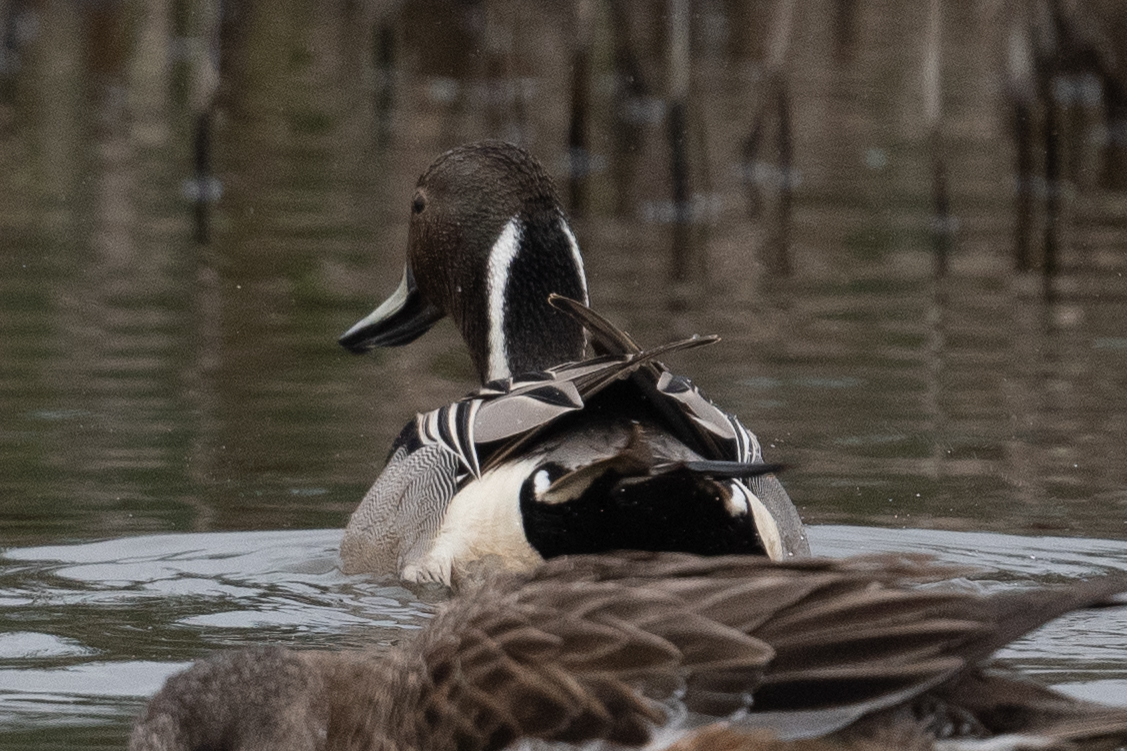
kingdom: Animalia
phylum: Chordata
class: Aves
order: Anseriformes
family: Anatidae
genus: Anas
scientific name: Anas acuta
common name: Northern pintail
